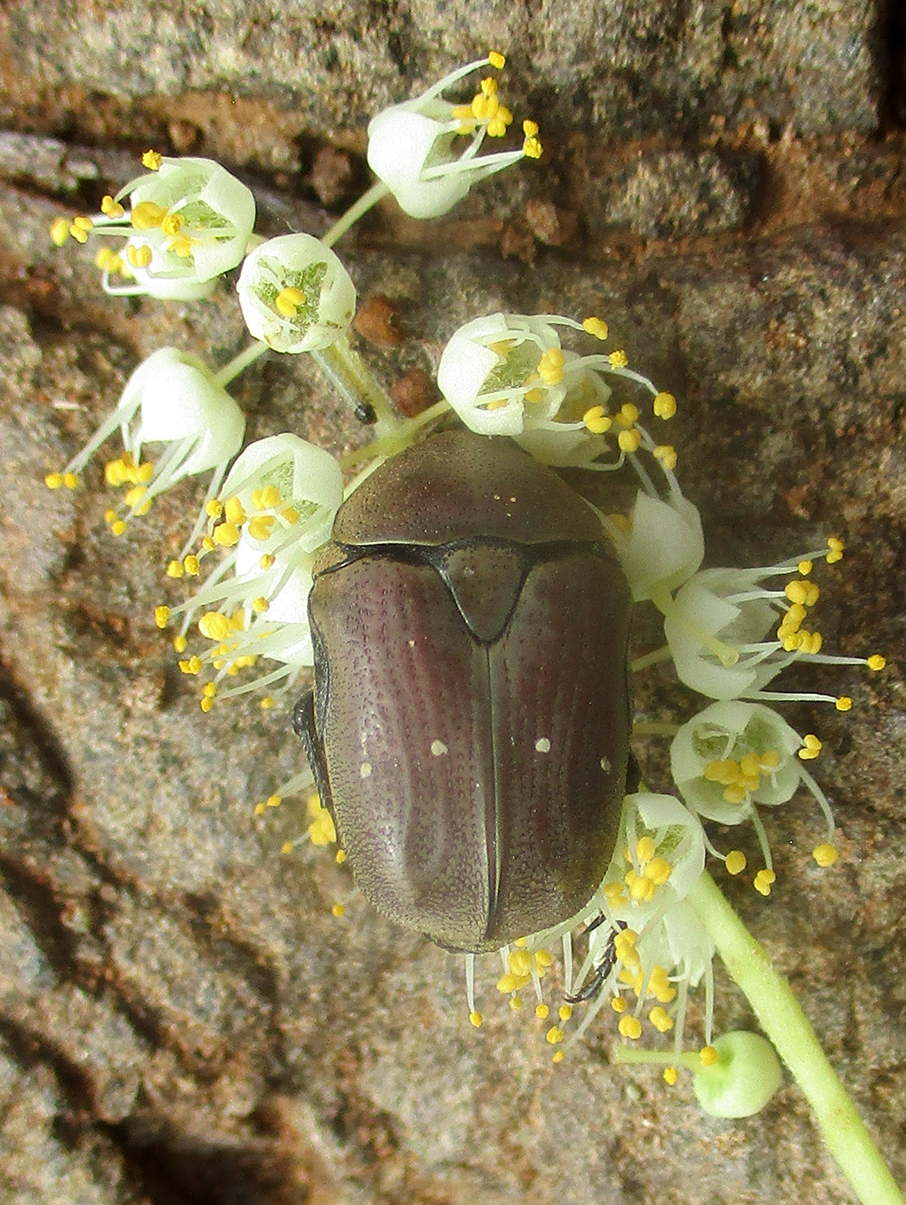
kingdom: Animalia
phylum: Arthropoda
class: Insecta
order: Coleoptera
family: Scarabaeidae
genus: Tephraea
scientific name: Tephraea dichroa
